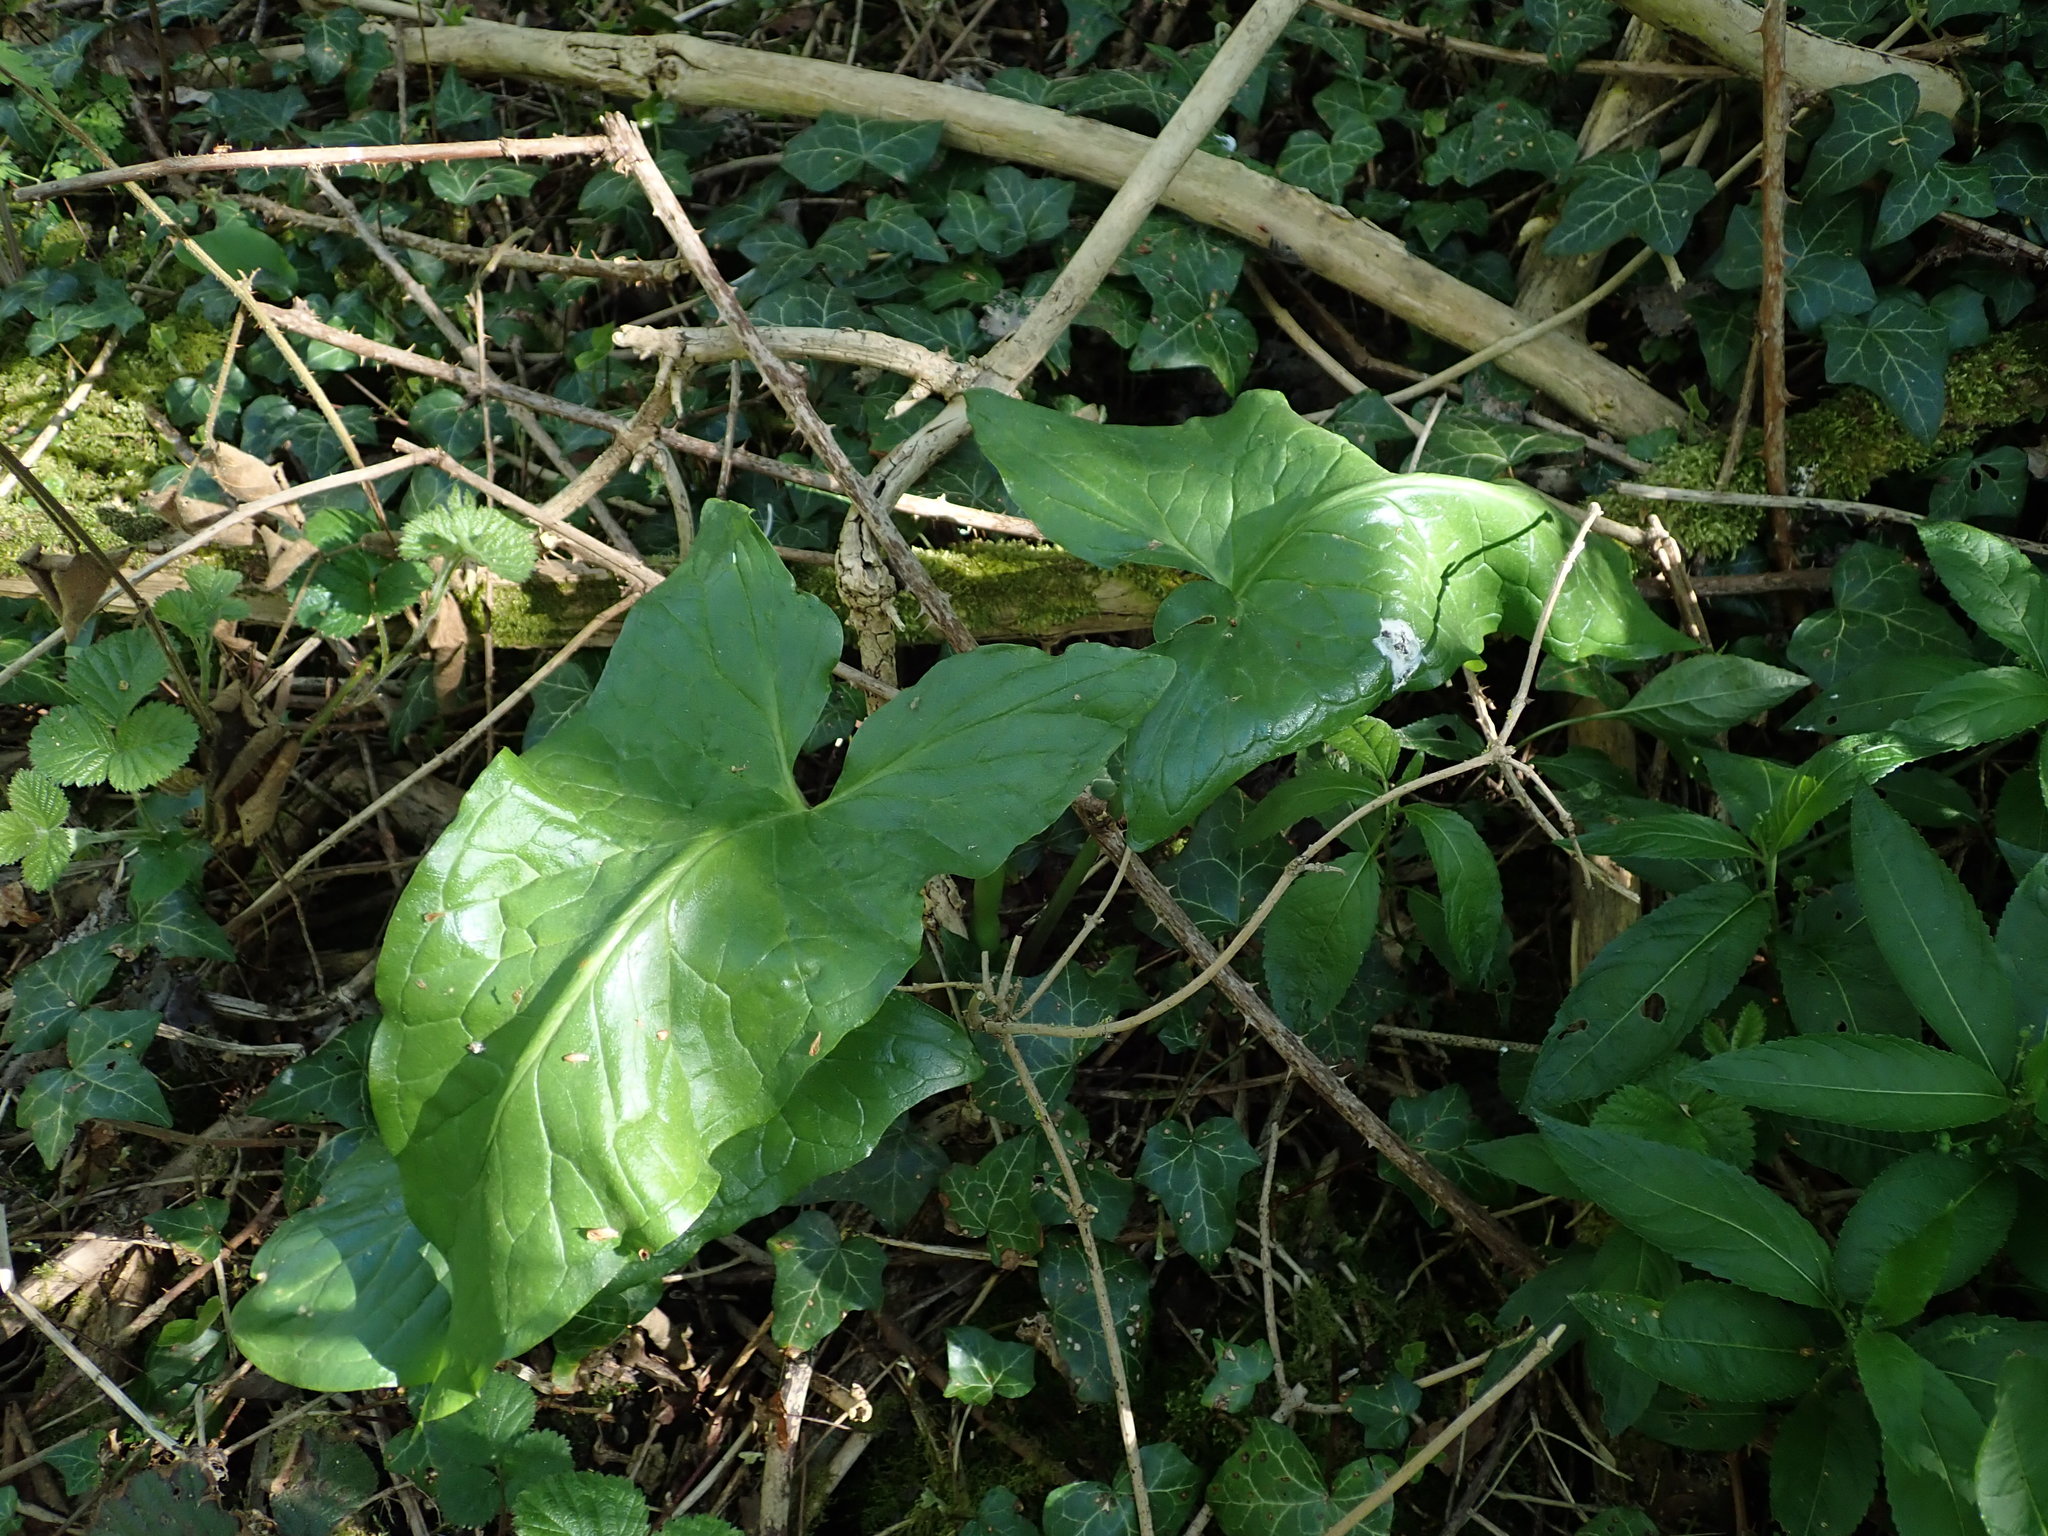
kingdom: Plantae
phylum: Tracheophyta
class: Liliopsida
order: Alismatales
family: Araceae
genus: Arum
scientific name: Arum maculatum
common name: Lords-and-ladies
